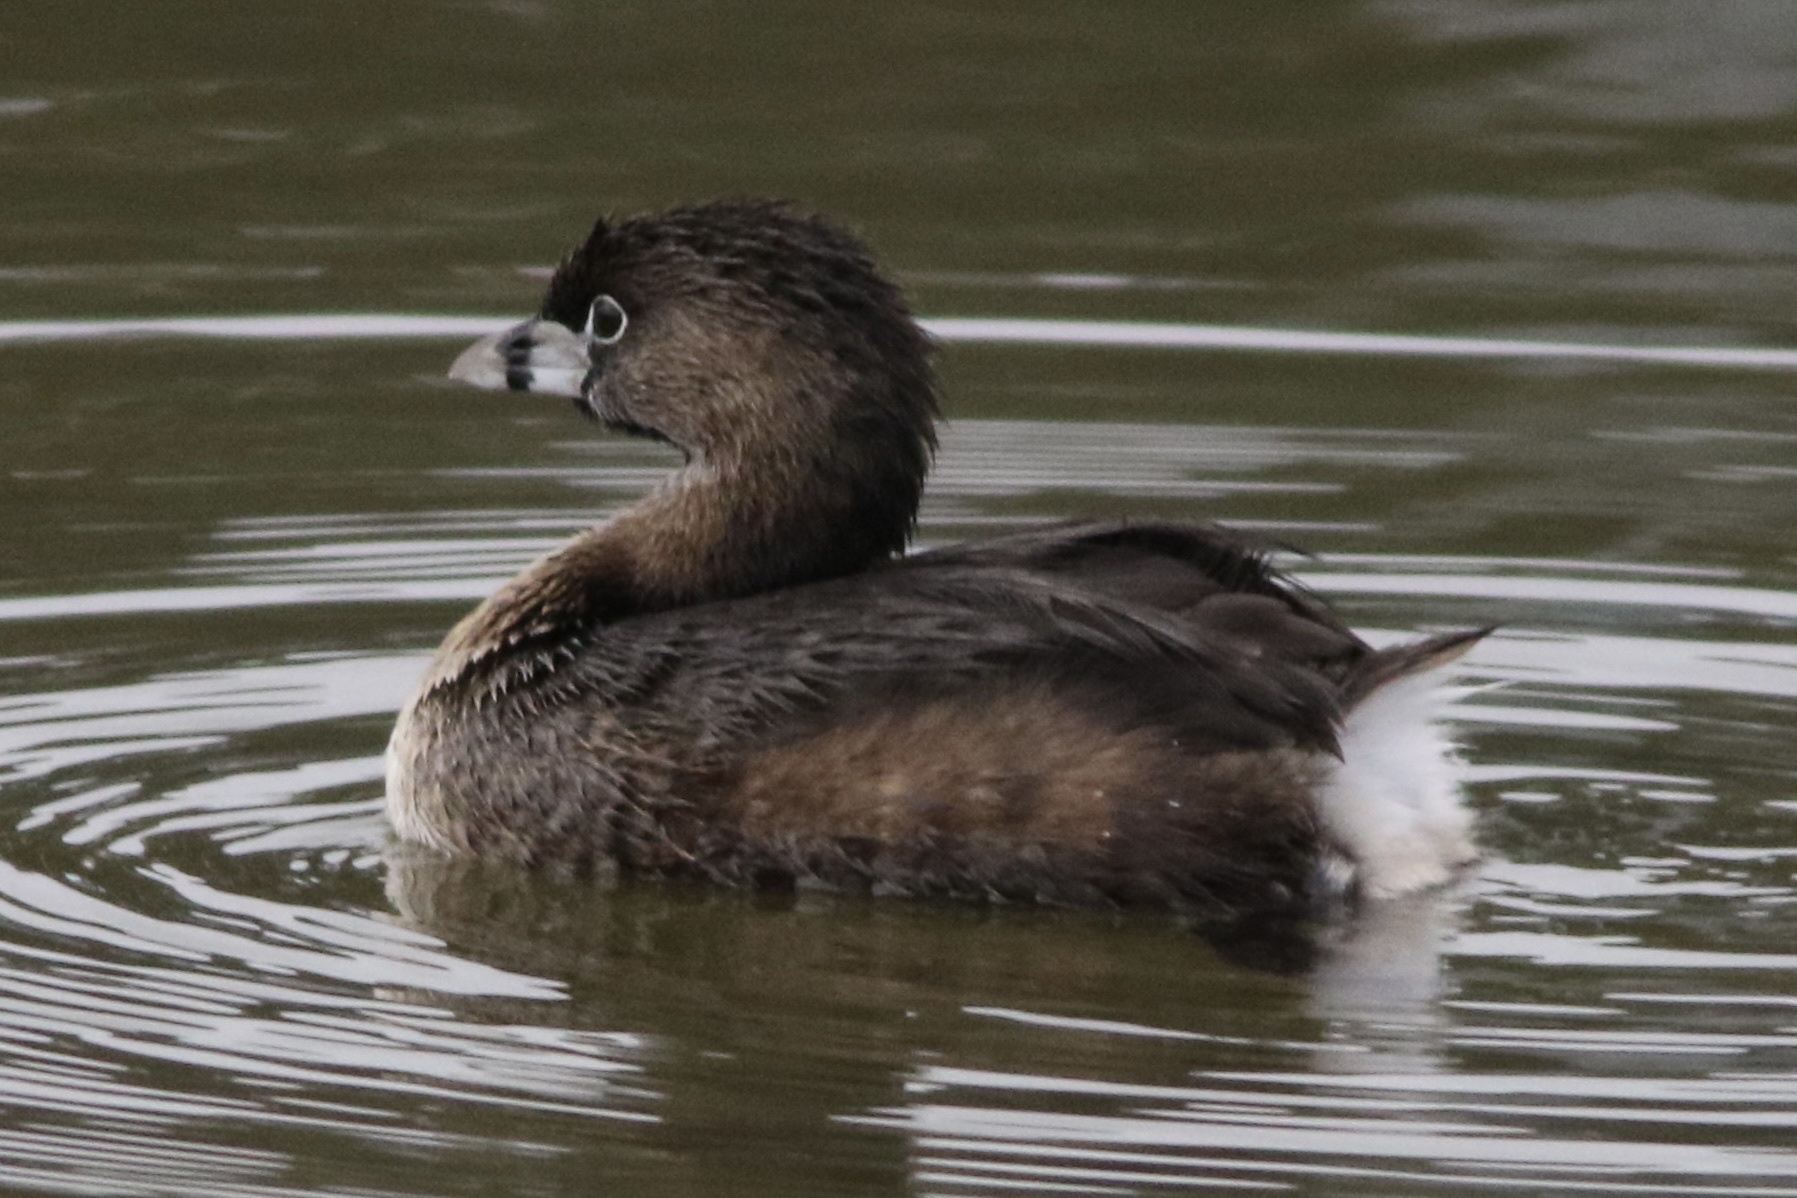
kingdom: Animalia
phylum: Chordata
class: Aves
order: Podicipediformes
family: Podicipedidae
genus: Podilymbus
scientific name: Podilymbus podiceps
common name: Pied-billed grebe
